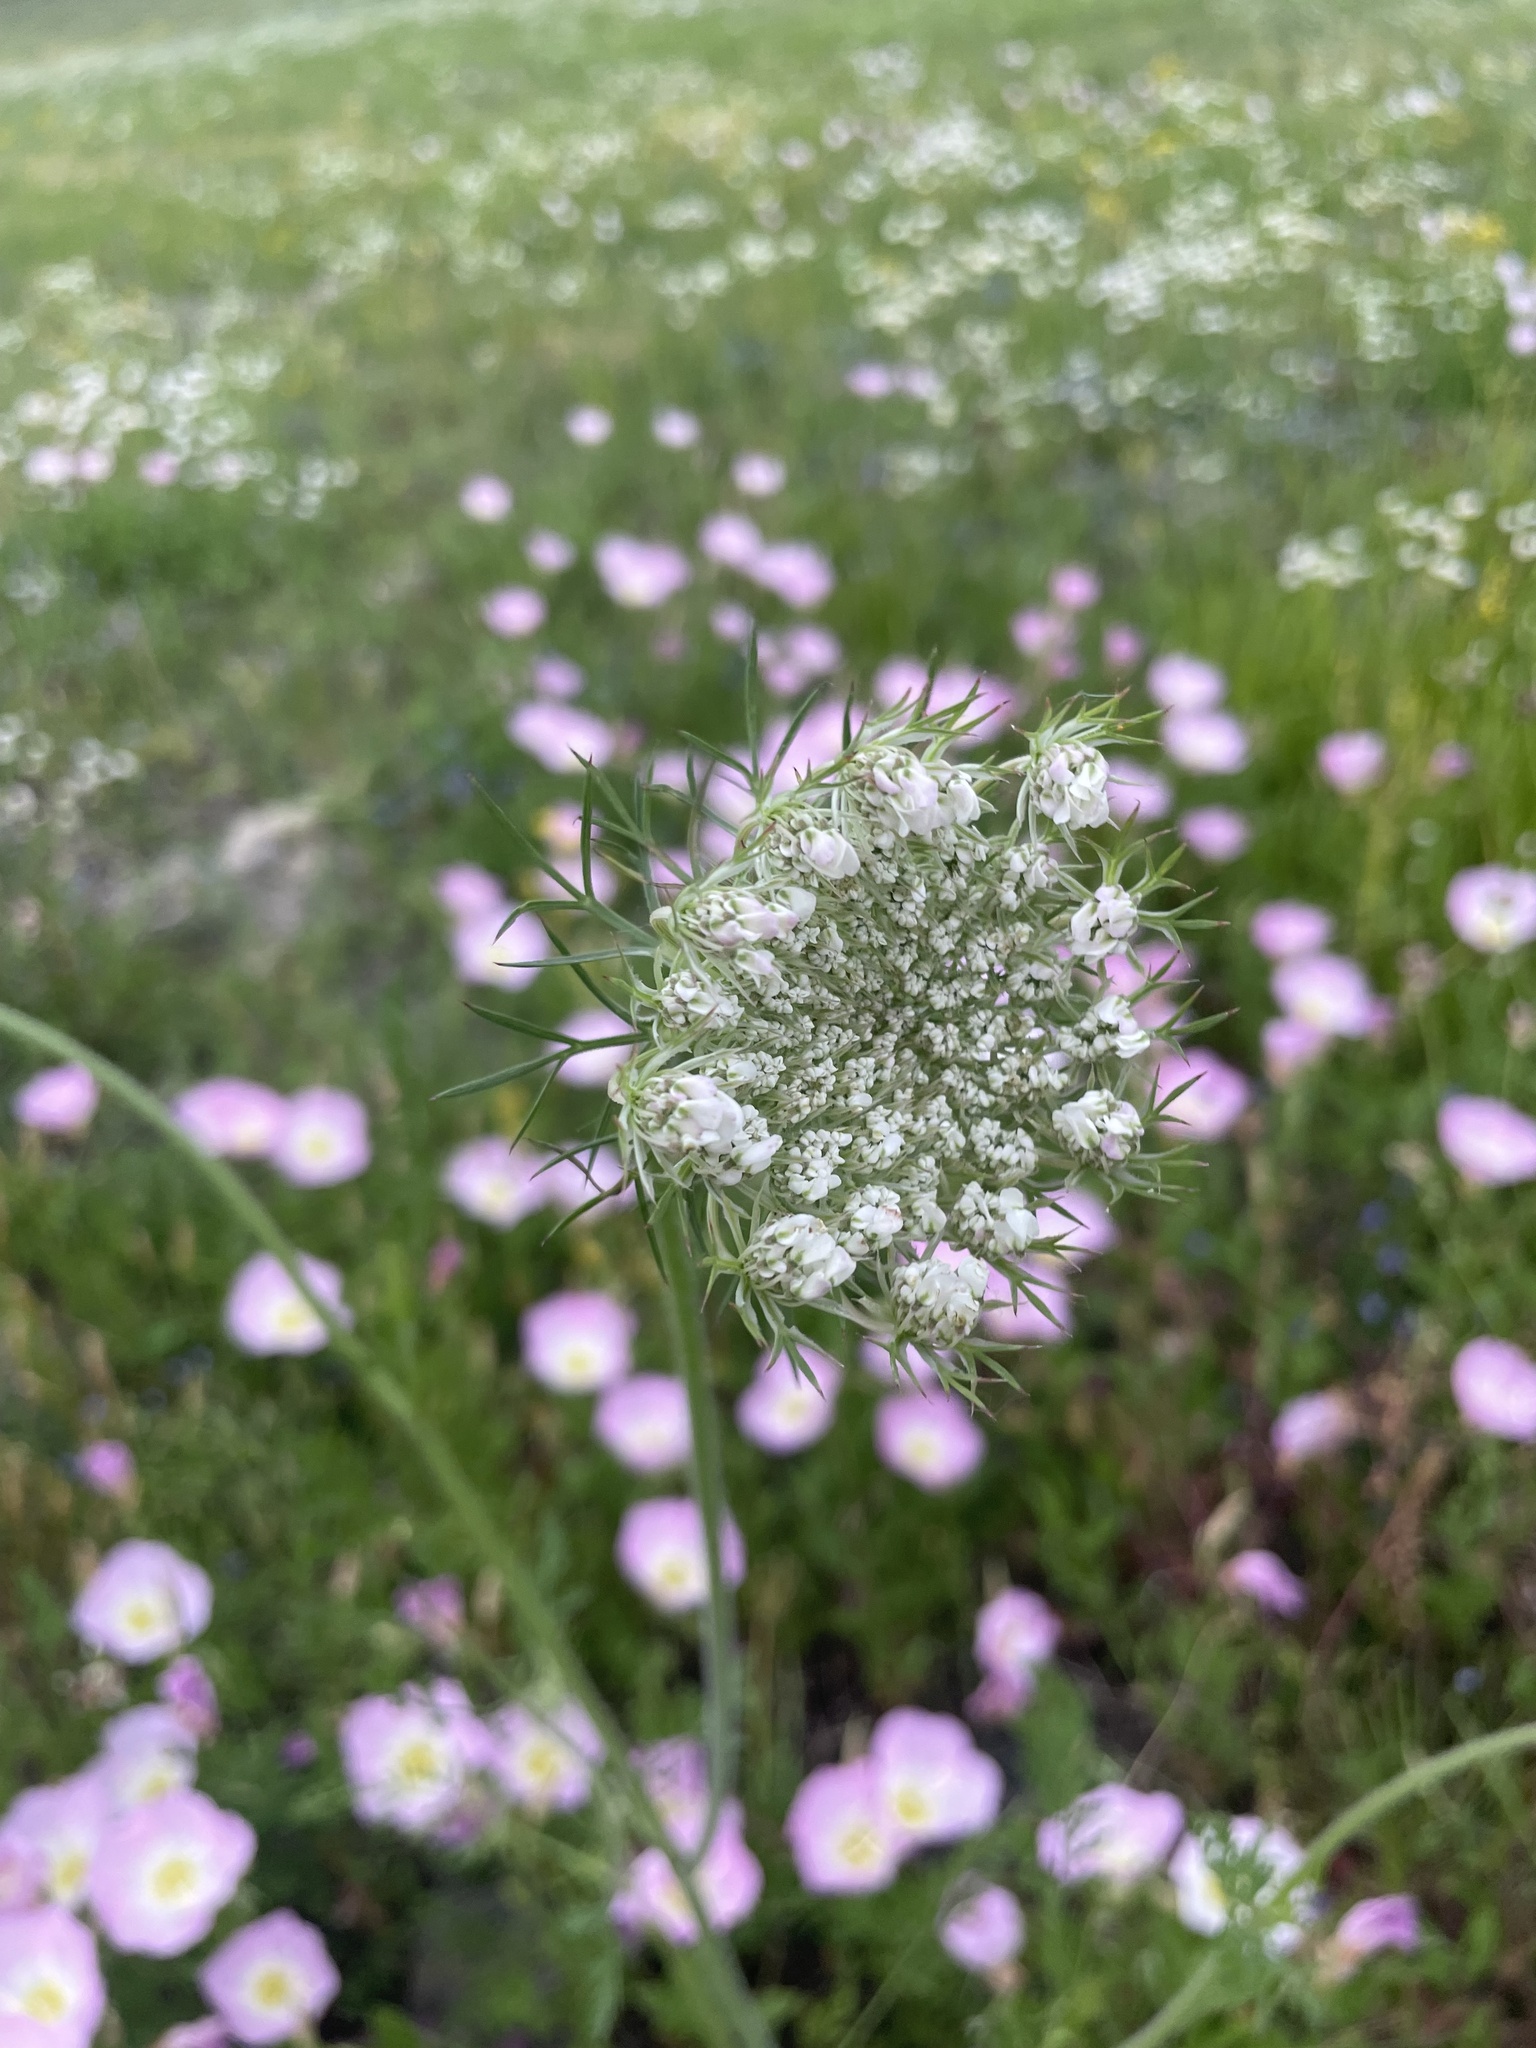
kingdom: Plantae
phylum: Tracheophyta
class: Magnoliopsida
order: Apiales
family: Apiaceae
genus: Daucus
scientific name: Daucus carota
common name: Wild carrot
